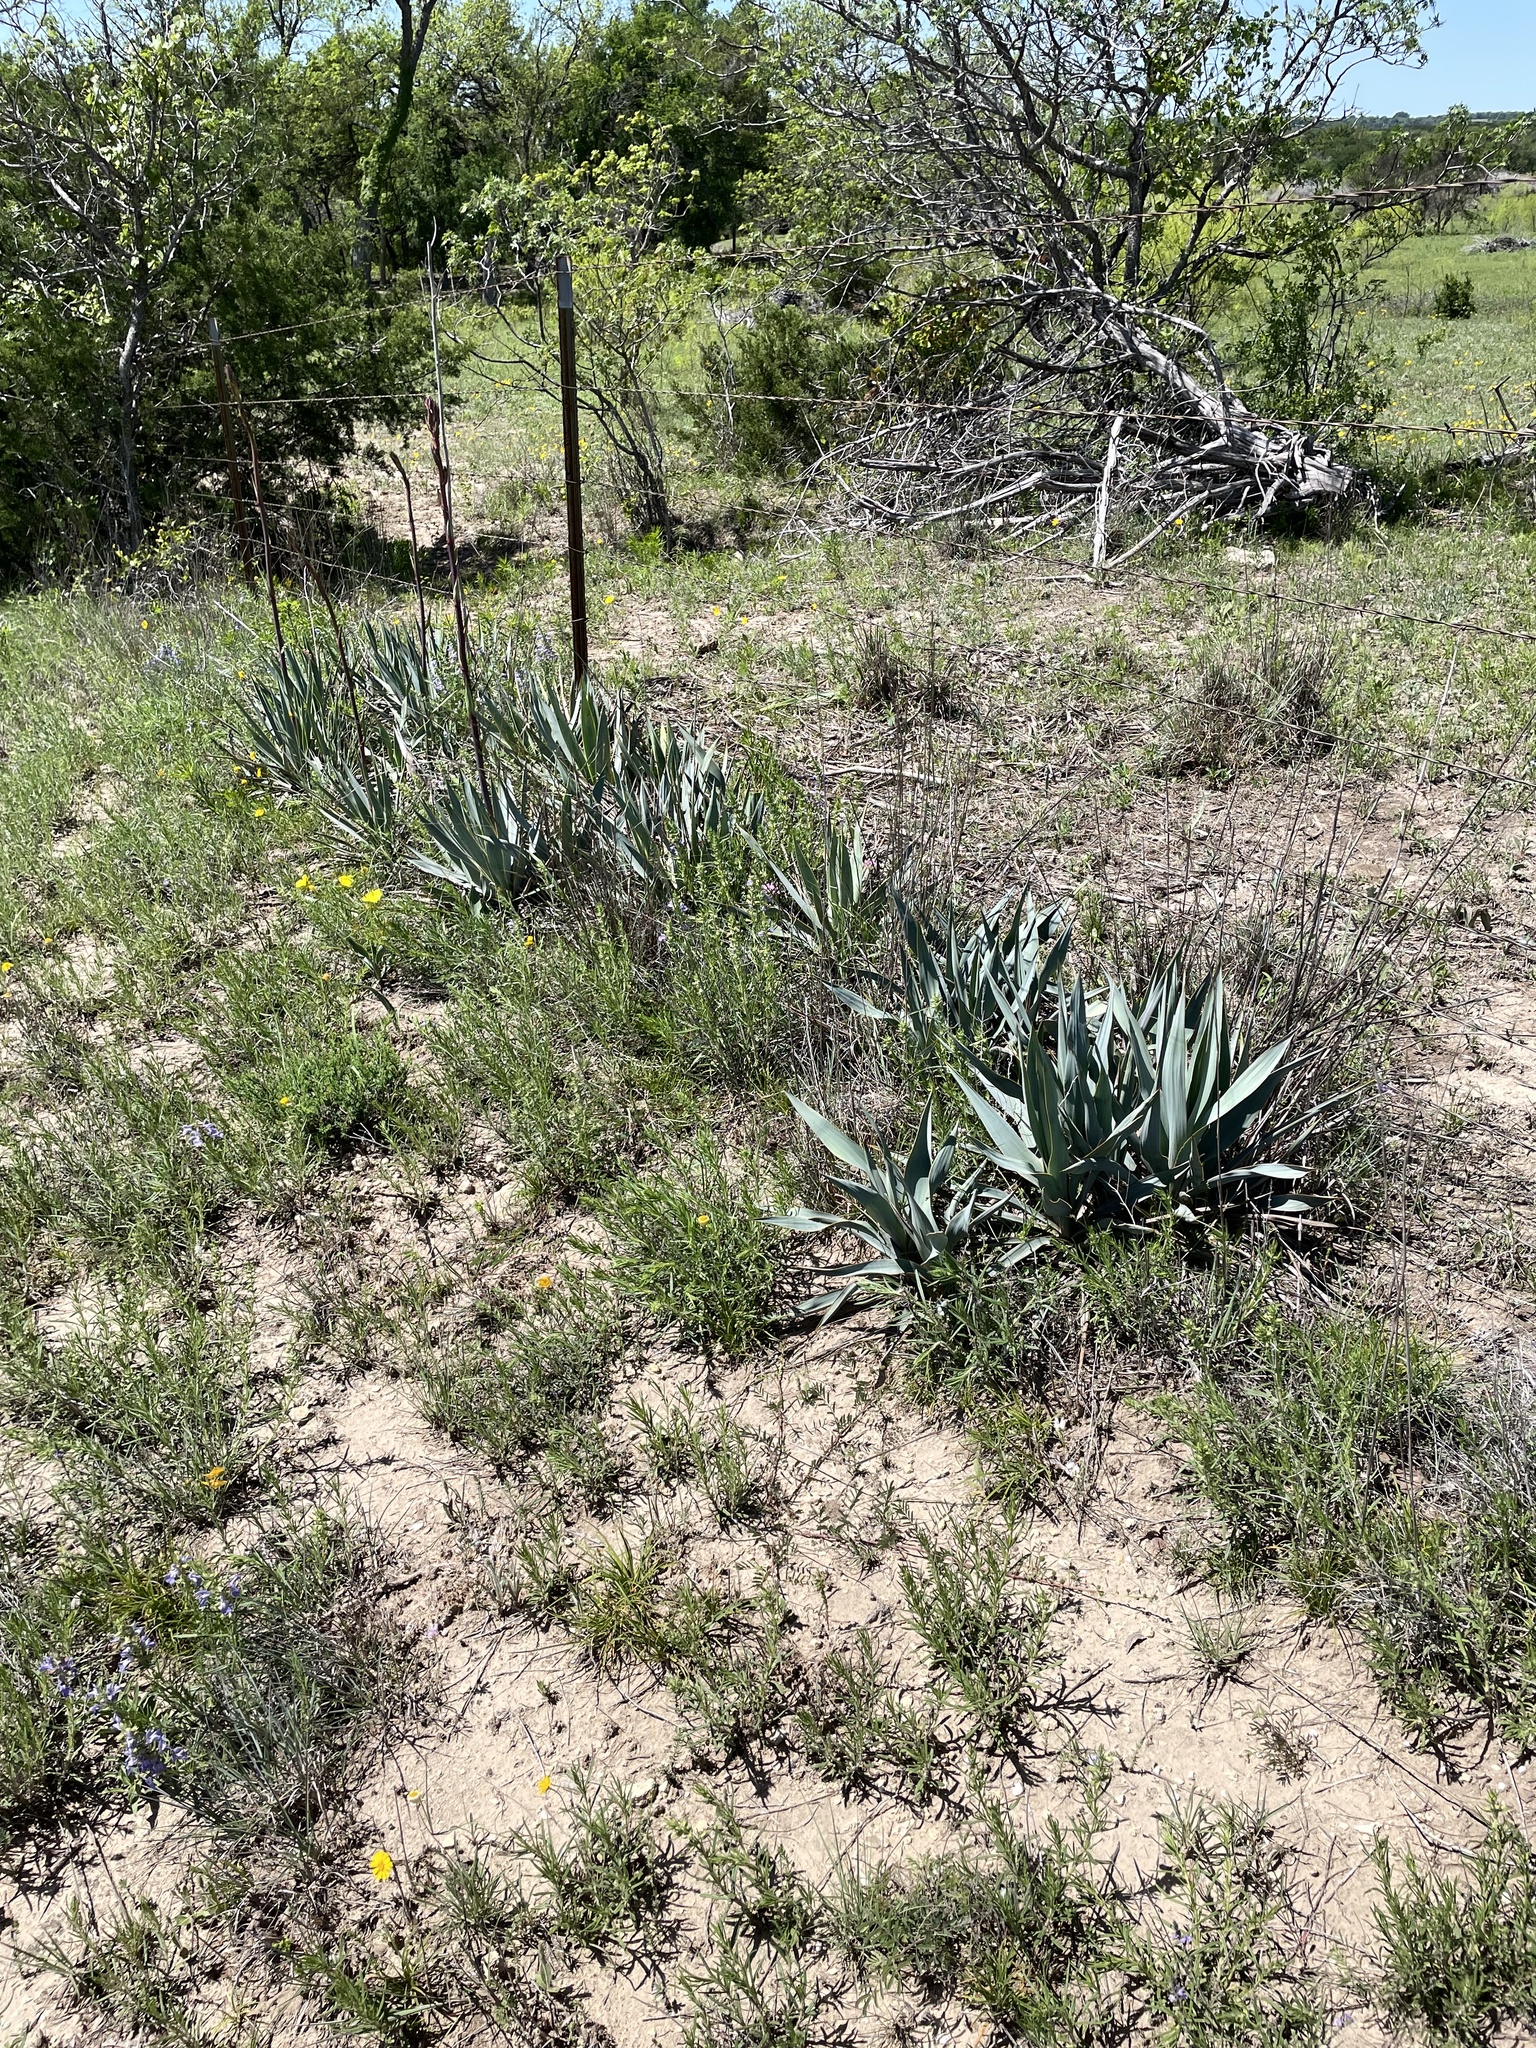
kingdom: Plantae
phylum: Tracheophyta
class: Liliopsida
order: Asparagales
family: Asparagaceae
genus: Yucca
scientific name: Yucca pallida
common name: Pale leaf yucca
